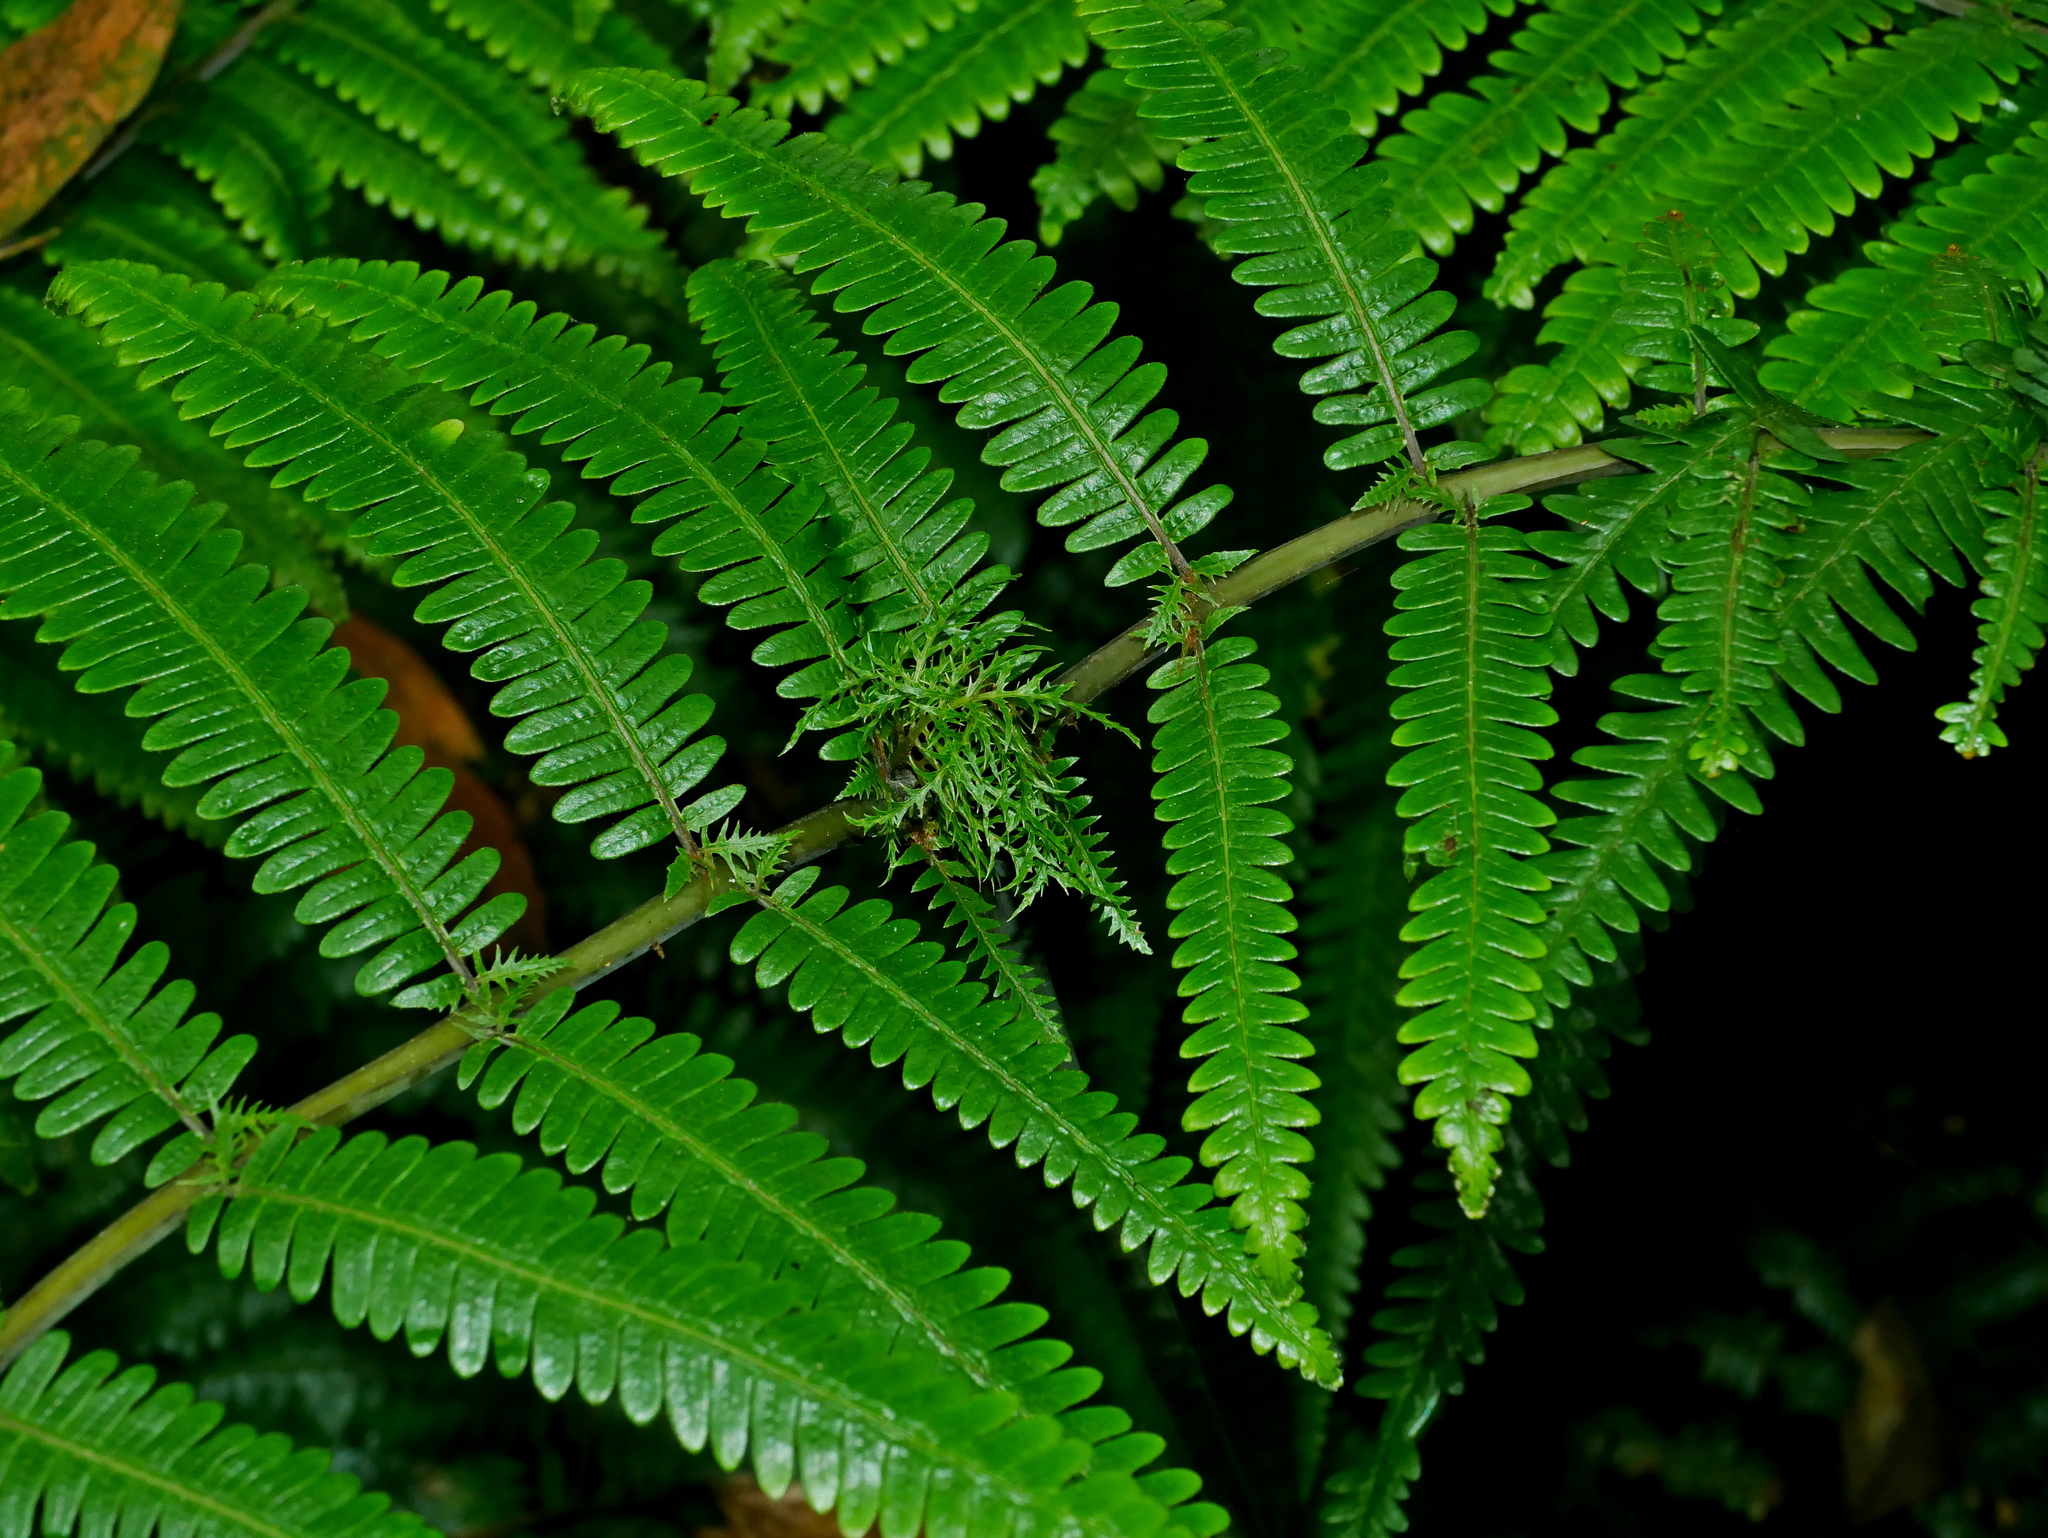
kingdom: Plantae
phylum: Tracheophyta
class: Polypodiopsida
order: Gleicheniales
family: Gleicheniaceae
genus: Diplopterygium
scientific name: Diplopterygium glaucum
